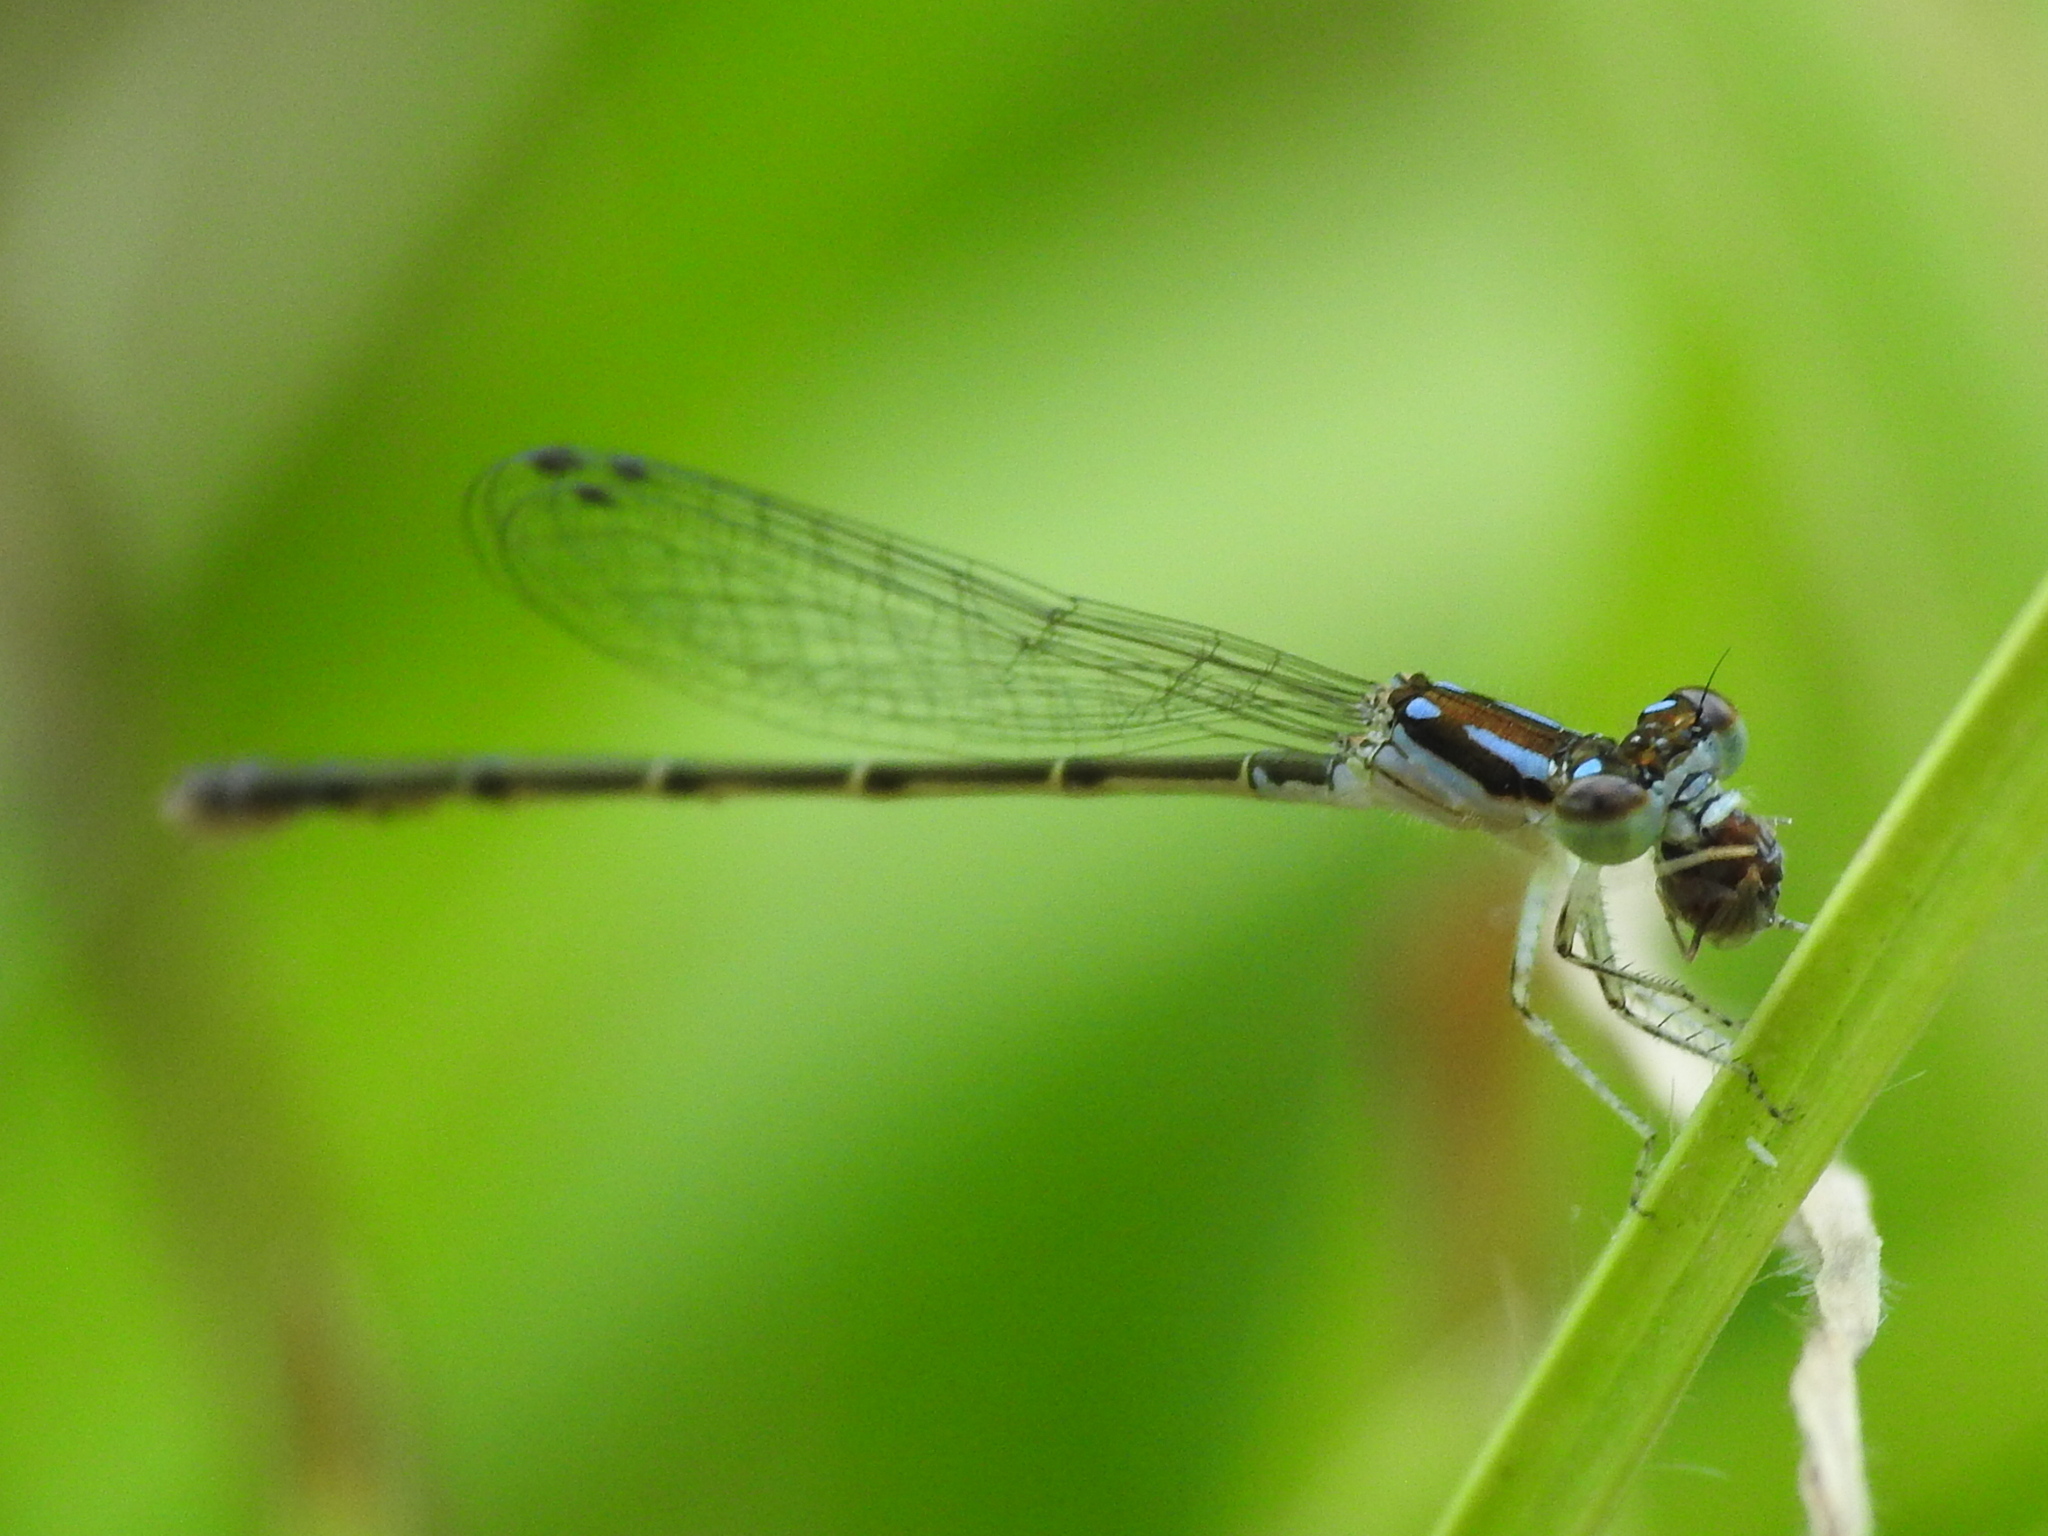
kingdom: Animalia
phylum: Arthropoda
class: Insecta
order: Odonata
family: Coenagrionidae
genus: Ischnura
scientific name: Ischnura posita
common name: Fragile forktail
